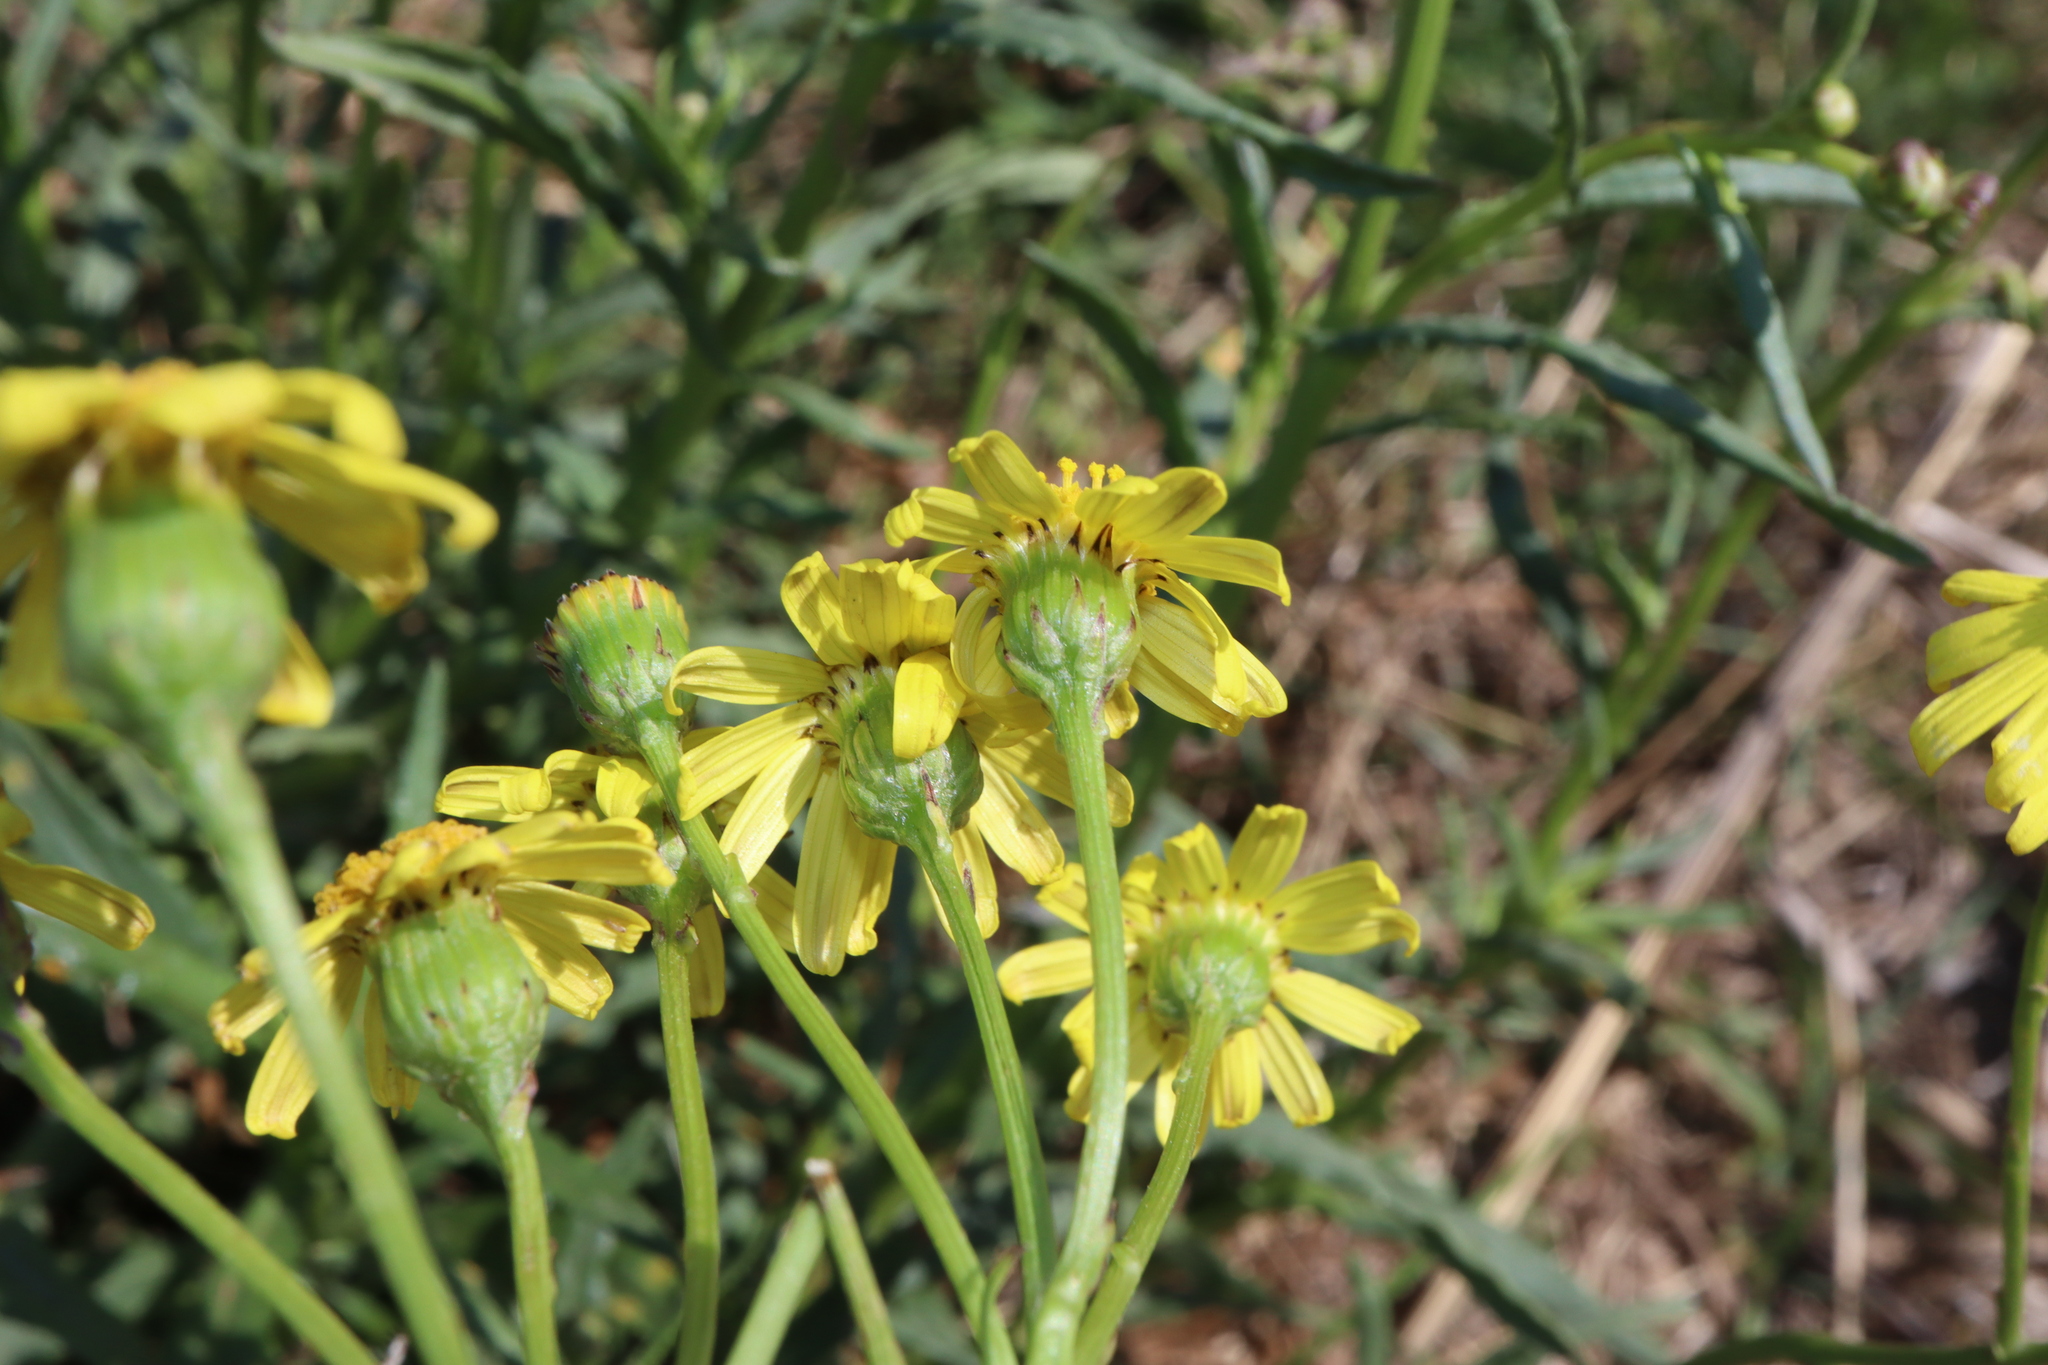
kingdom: Plantae
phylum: Tracheophyta
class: Magnoliopsida
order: Asterales
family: Asteraceae
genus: Senecio
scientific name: Senecio madagascariensis
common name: Madagascar ragwort
